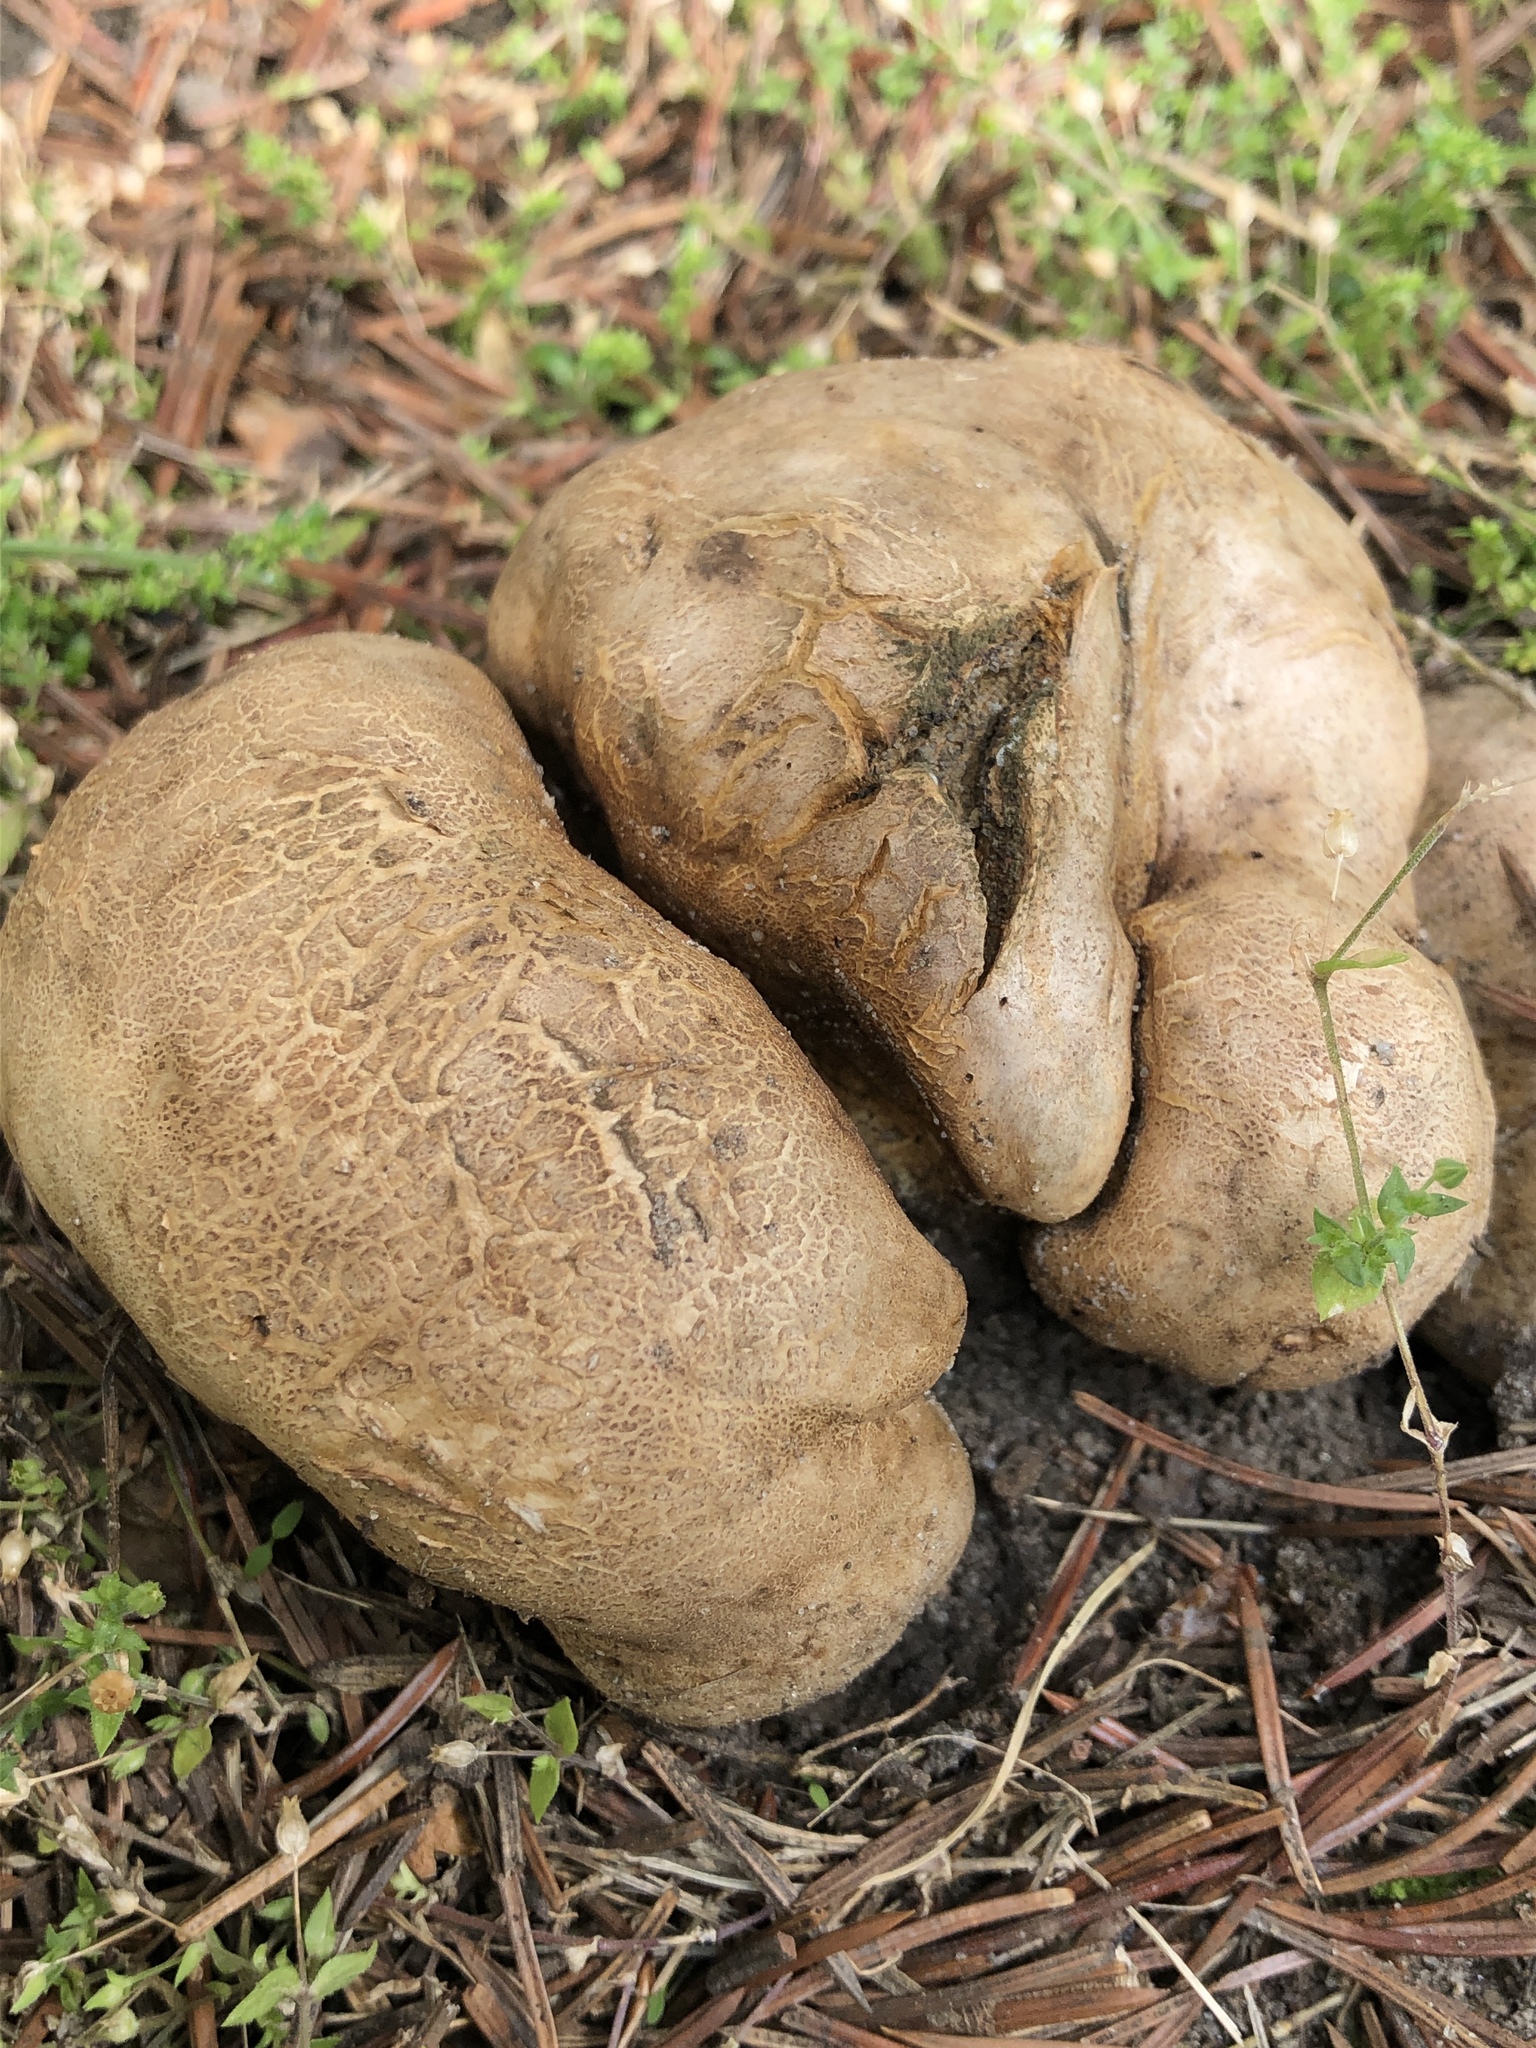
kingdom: Fungi
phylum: Basidiomycota
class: Agaricomycetes
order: Boletales
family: Sclerodermataceae
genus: Scleroderma
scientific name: Scleroderma polyrhizum
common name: Many-rooted earthball
